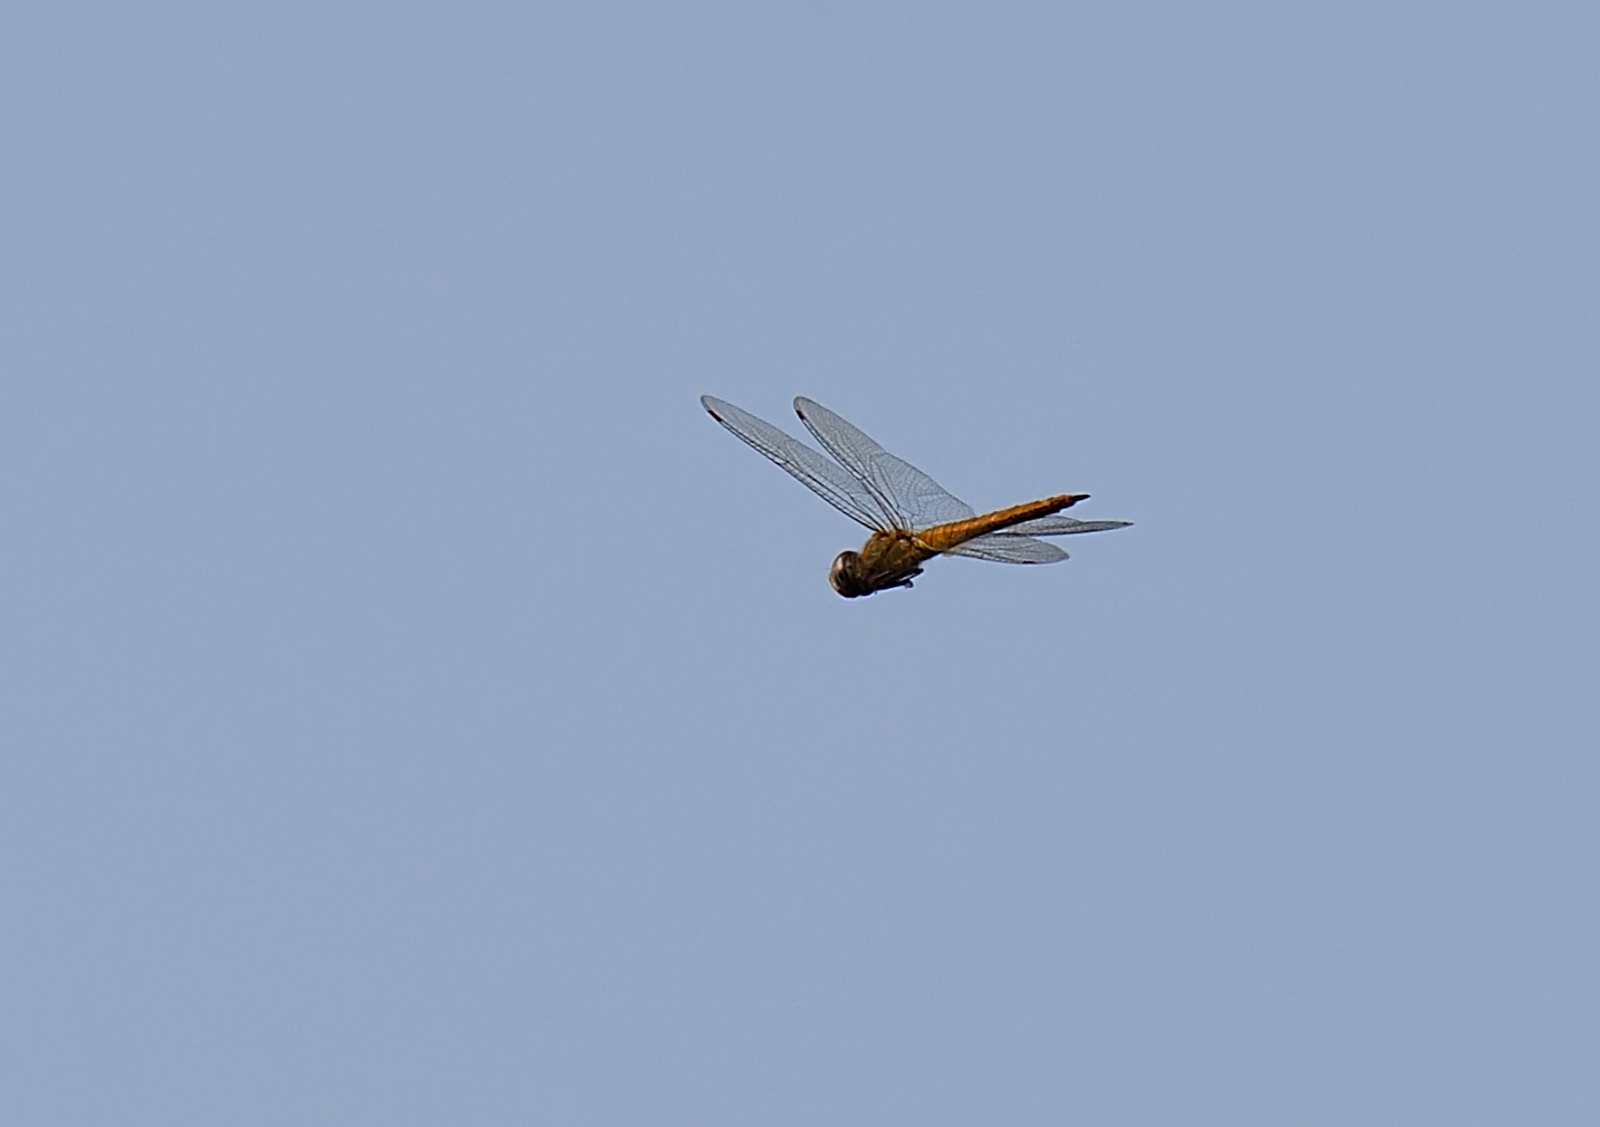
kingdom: Animalia
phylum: Arthropoda
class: Insecta
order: Odonata
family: Libellulidae
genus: Pantala
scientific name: Pantala flavescens
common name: Wandering glider
